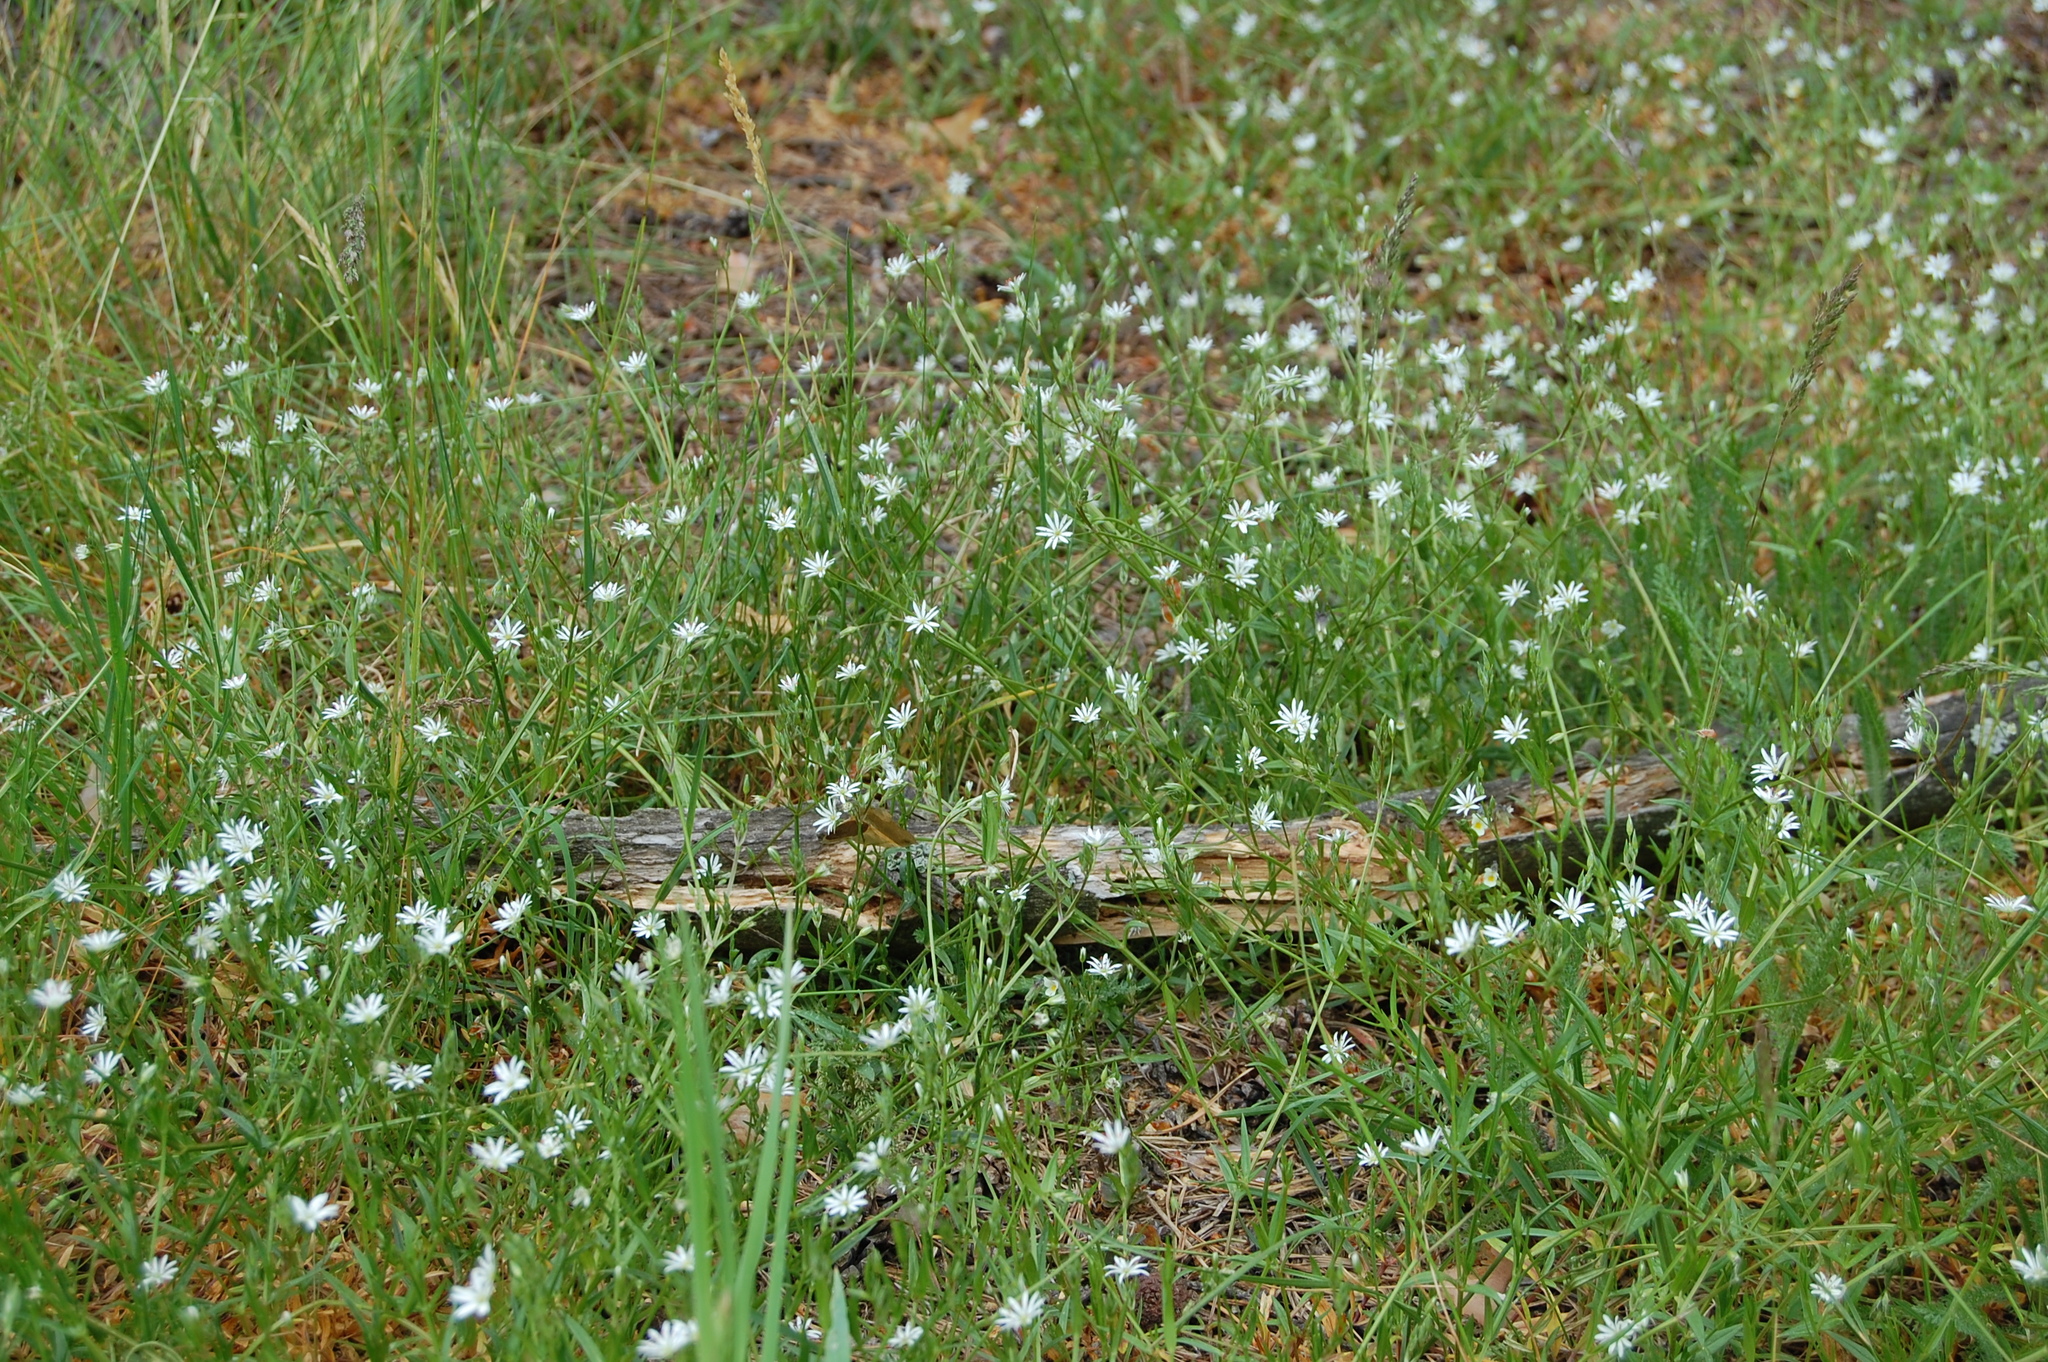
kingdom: Plantae
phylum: Tracheophyta
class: Magnoliopsida
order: Caryophyllales
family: Caryophyllaceae
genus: Stellaria
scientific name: Stellaria graminea
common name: Grass-like starwort
